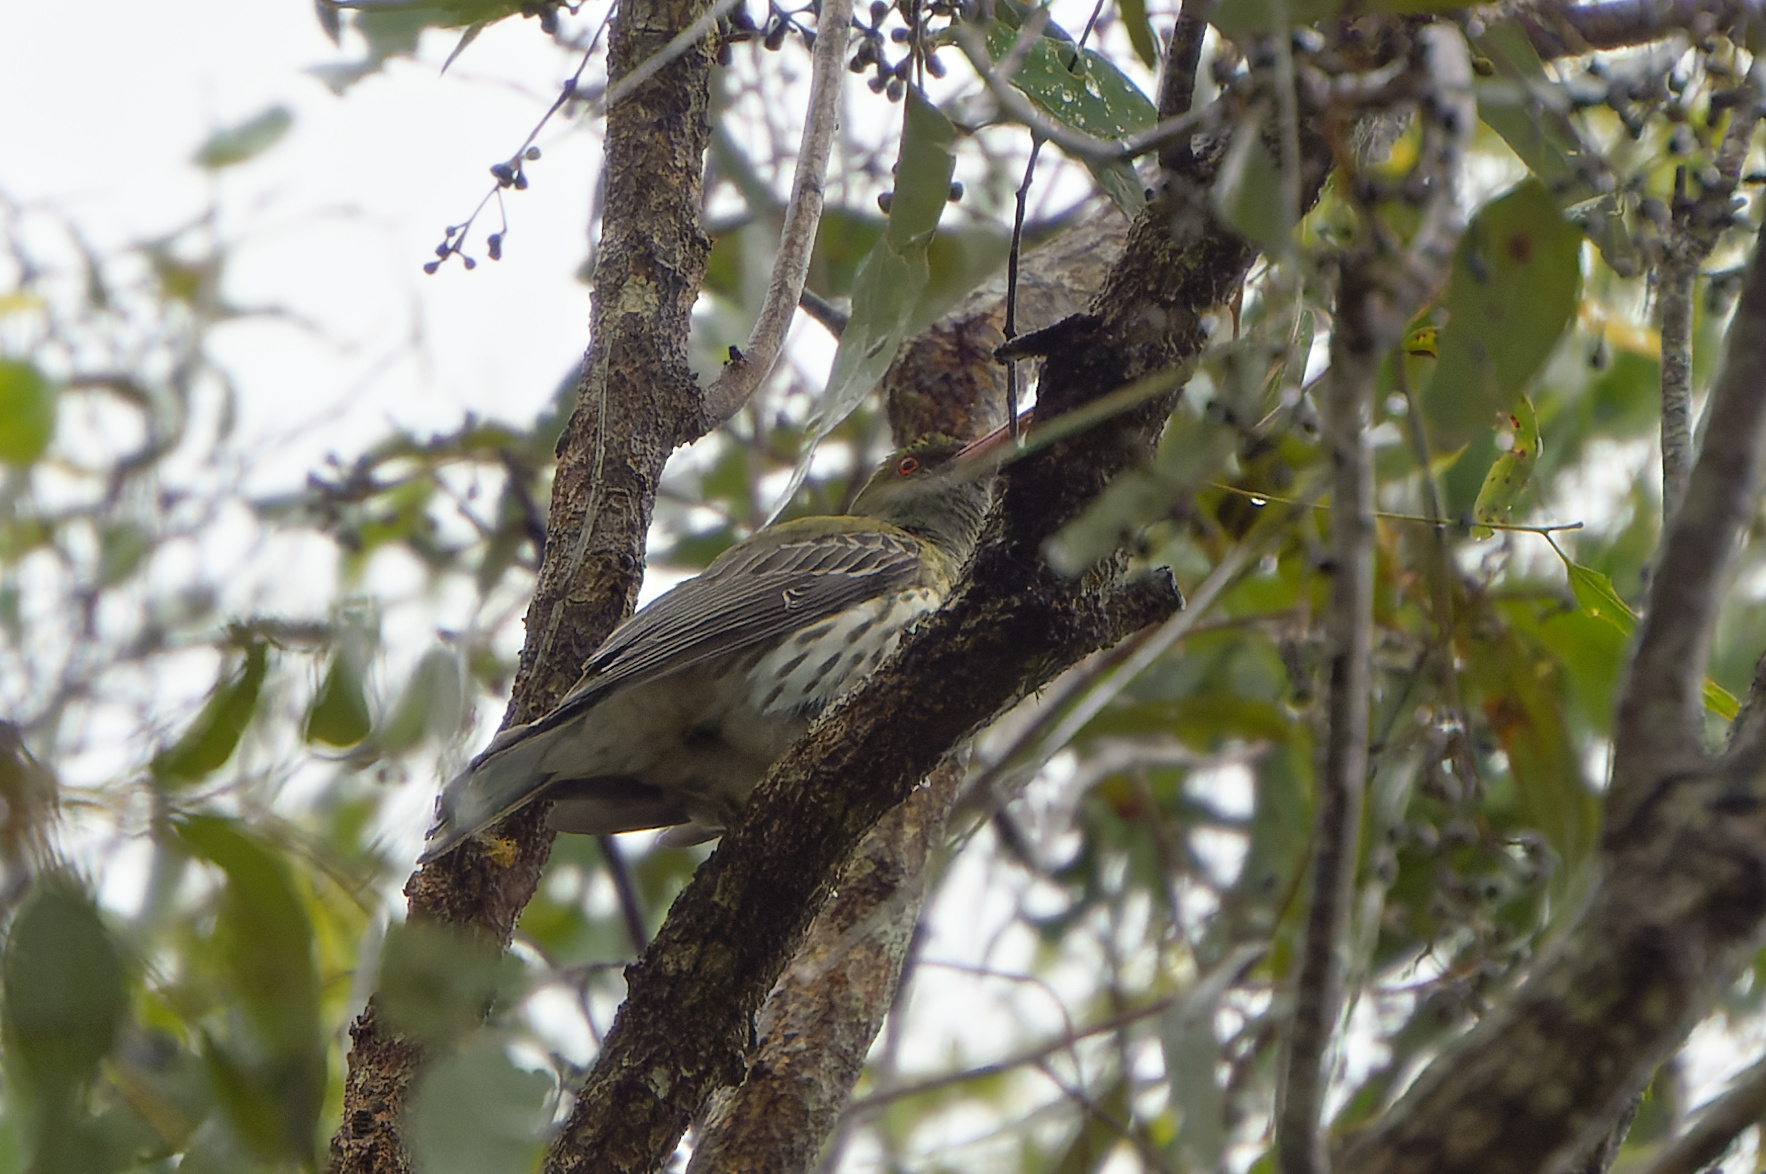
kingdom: Animalia
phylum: Chordata
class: Aves
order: Passeriformes
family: Oriolidae
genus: Oriolus
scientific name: Oriolus sagittatus
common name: Olive-backed oriole
